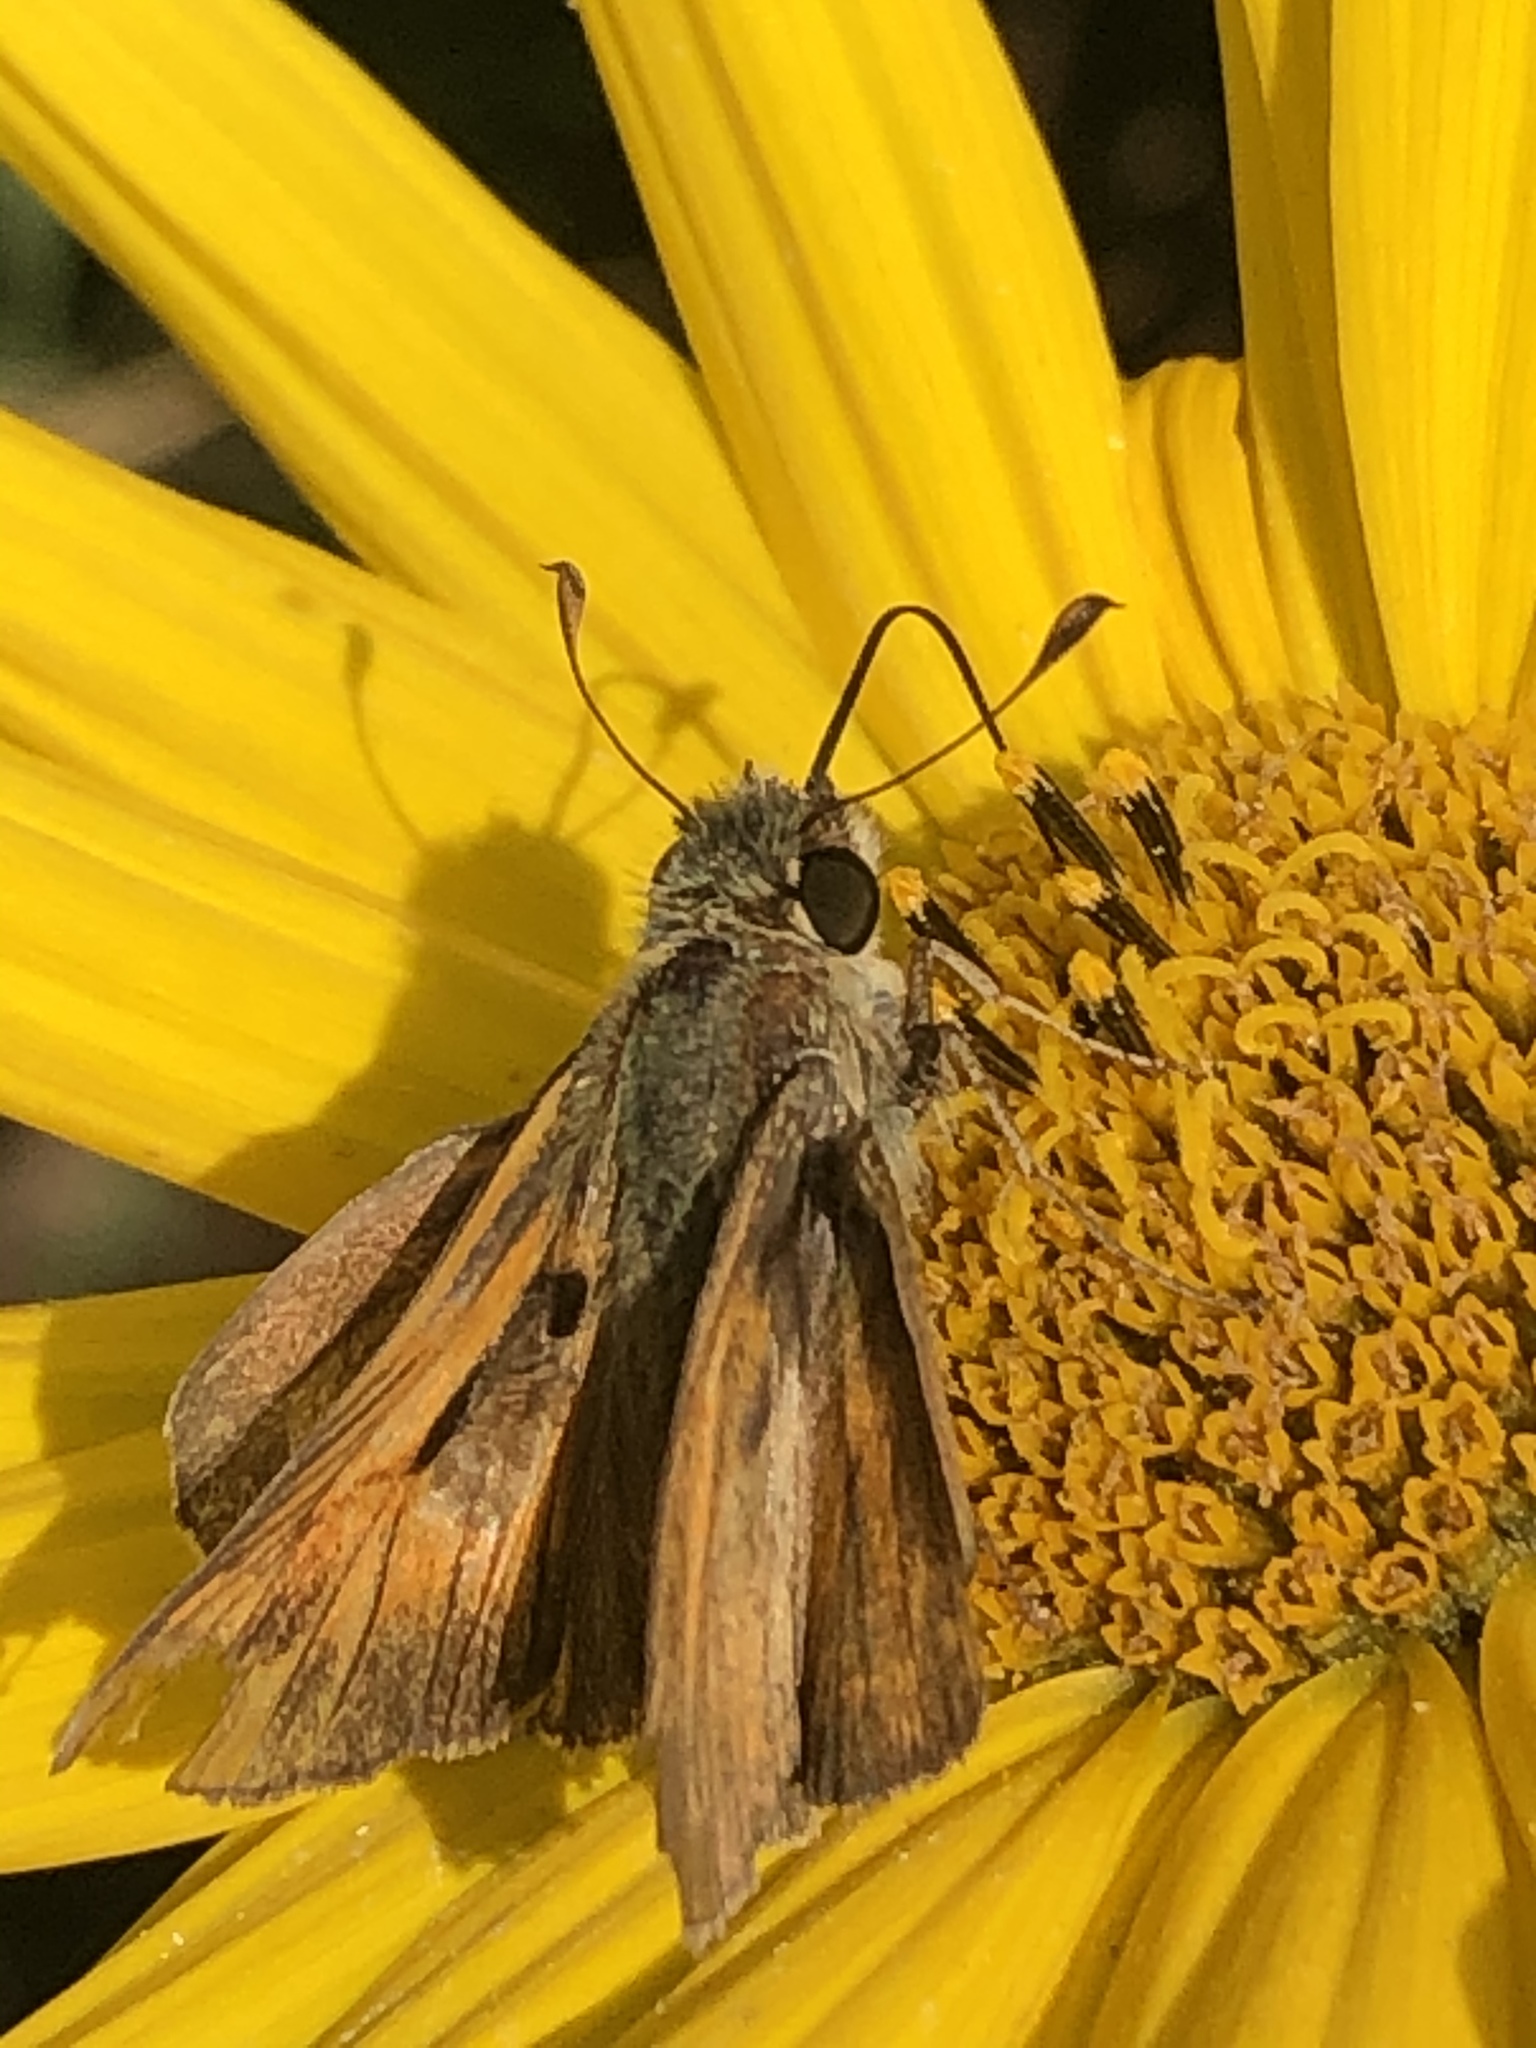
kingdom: Animalia
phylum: Arthropoda
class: Insecta
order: Lepidoptera
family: Hesperiidae
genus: Atalopedes
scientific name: Atalopedes
